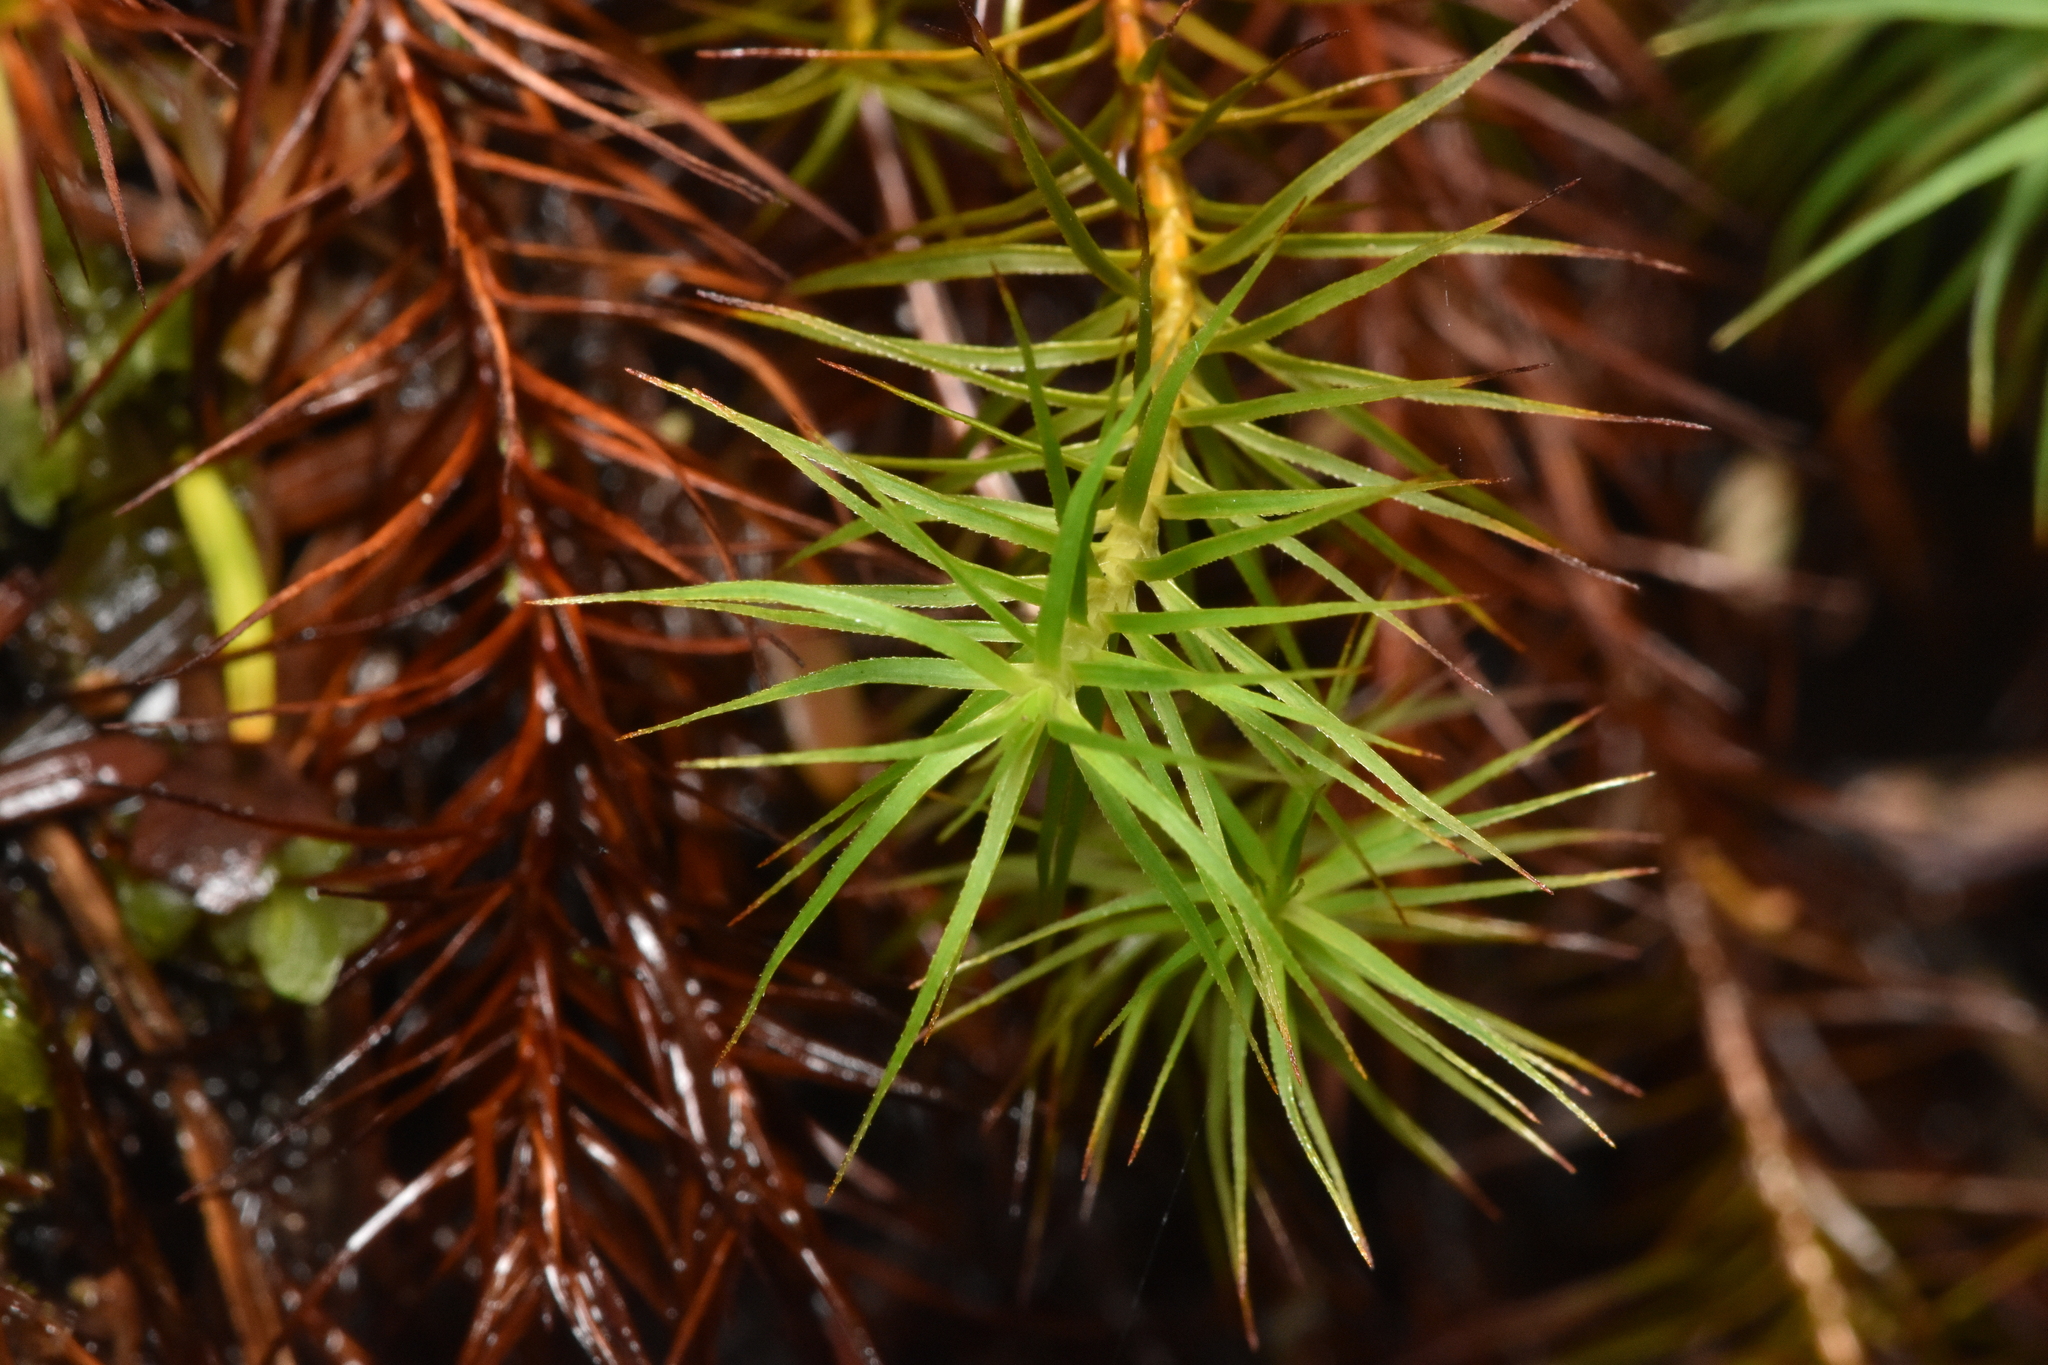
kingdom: Plantae
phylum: Bryophyta
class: Polytrichopsida
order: Polytrichales
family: Polytrichaceae
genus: Polytrichastrum
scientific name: Polytrichastrum alpinum
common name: Alpine haircap
